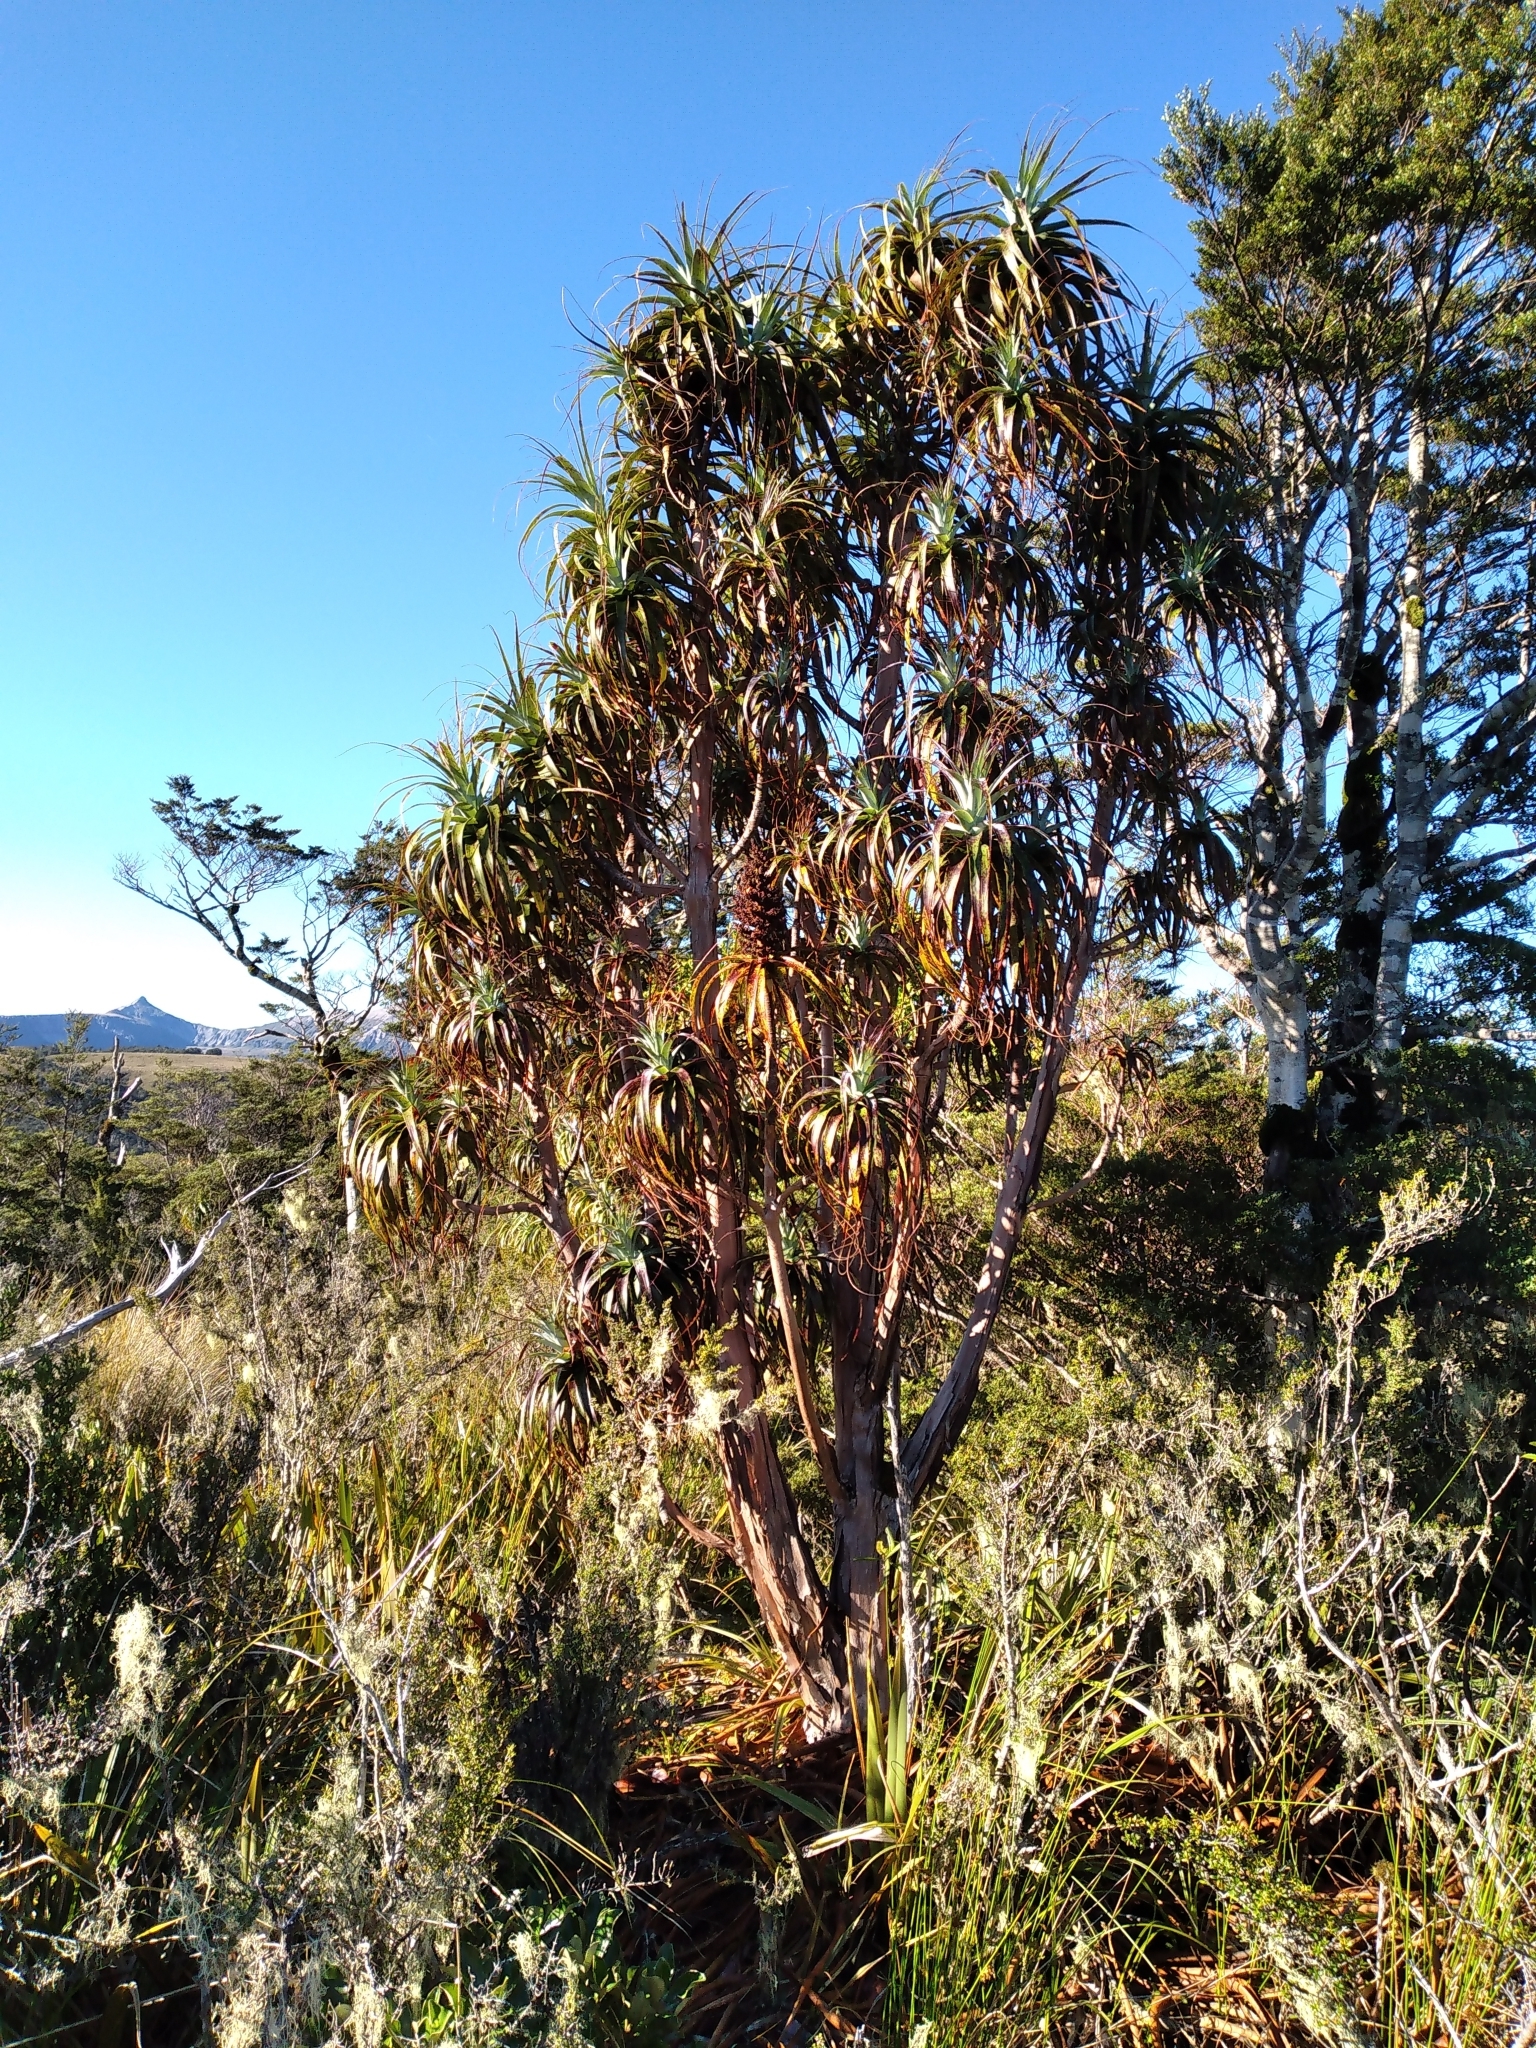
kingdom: Plantae
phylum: Tracheophyta
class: Magnoliopsida
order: Ericales
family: Ericaceae
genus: Dracophyllum
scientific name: Dracophyllum traversii
